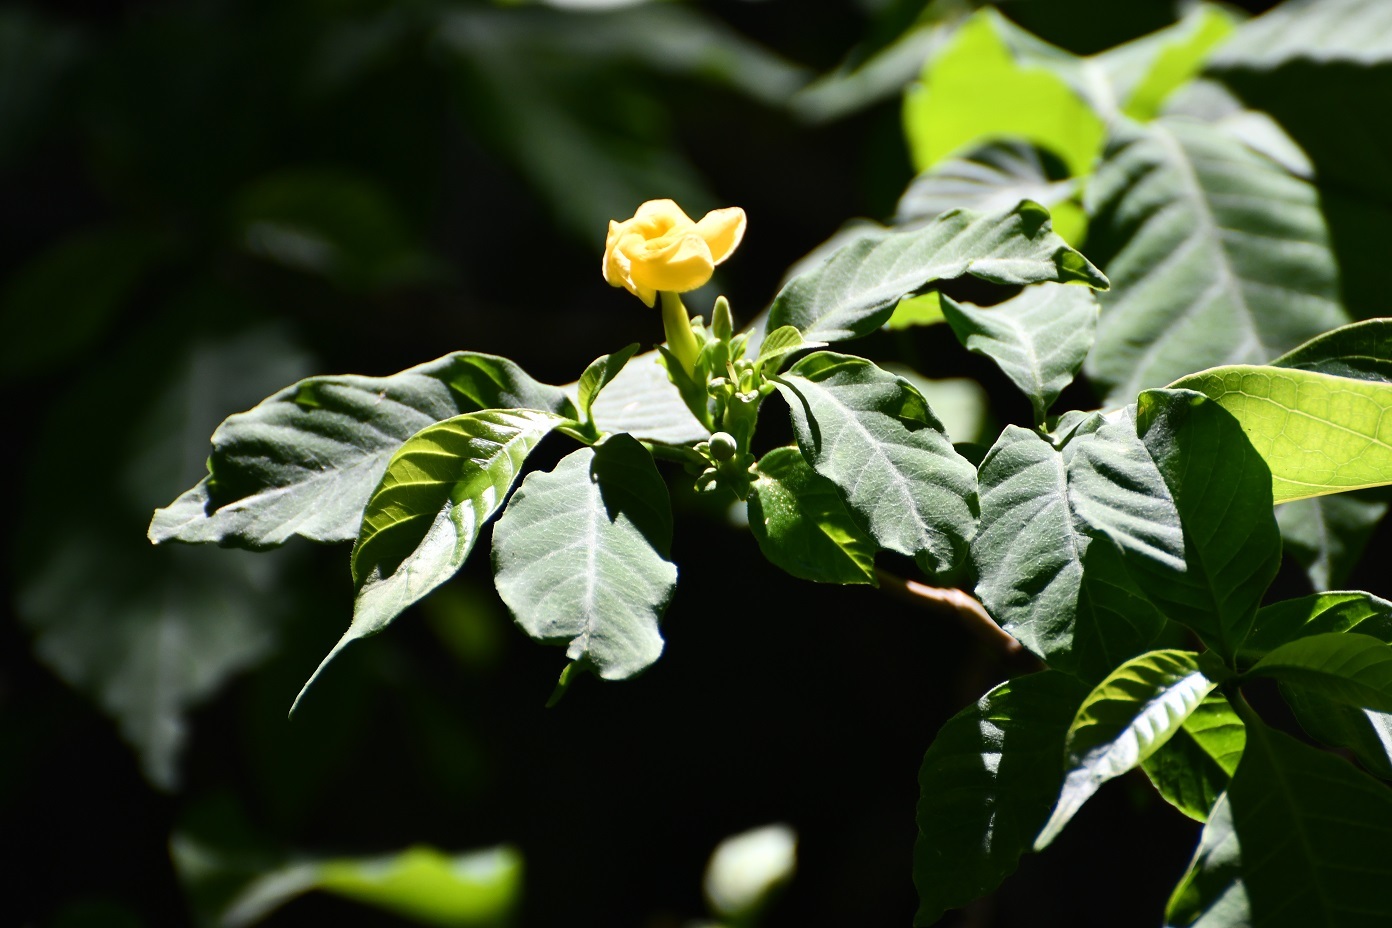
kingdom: Plantae
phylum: Tracheophyta
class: Magnoliopsida
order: Gentianales
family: Apocynaceae
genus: Tabernaemontana
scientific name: Tabernaemontana hannae
